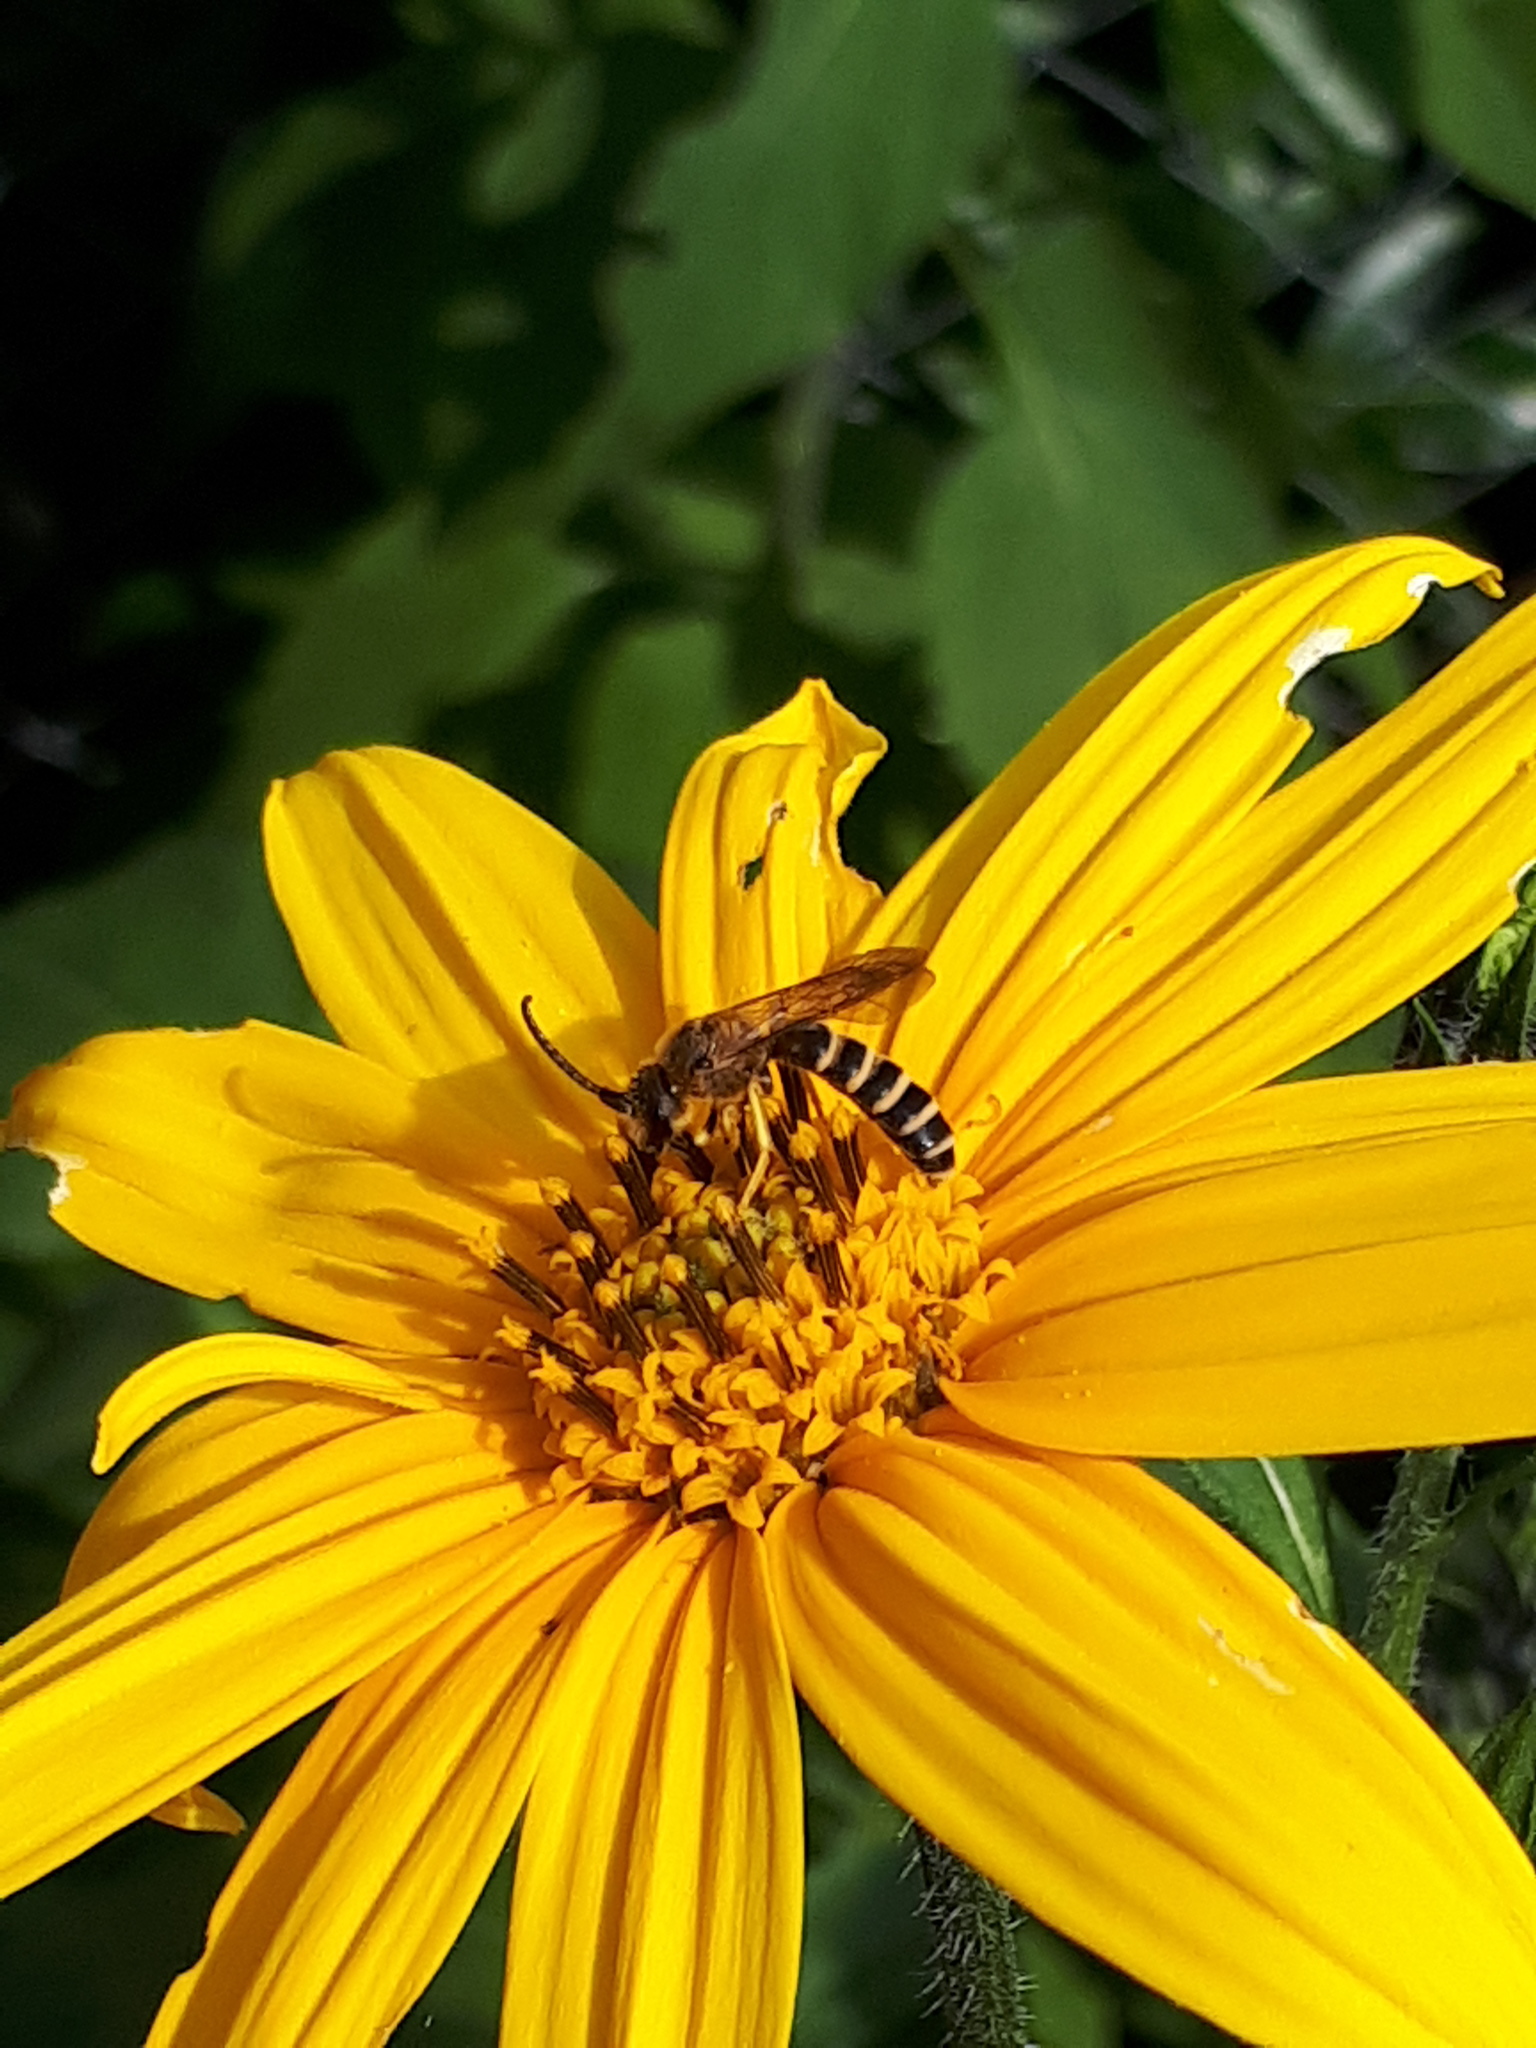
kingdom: Animalia
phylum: Arthropoda
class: Insecta
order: Hymenoptera
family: Halictidae
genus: Halictus
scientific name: Halictus scabiosae
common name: Great banded furrow bee
